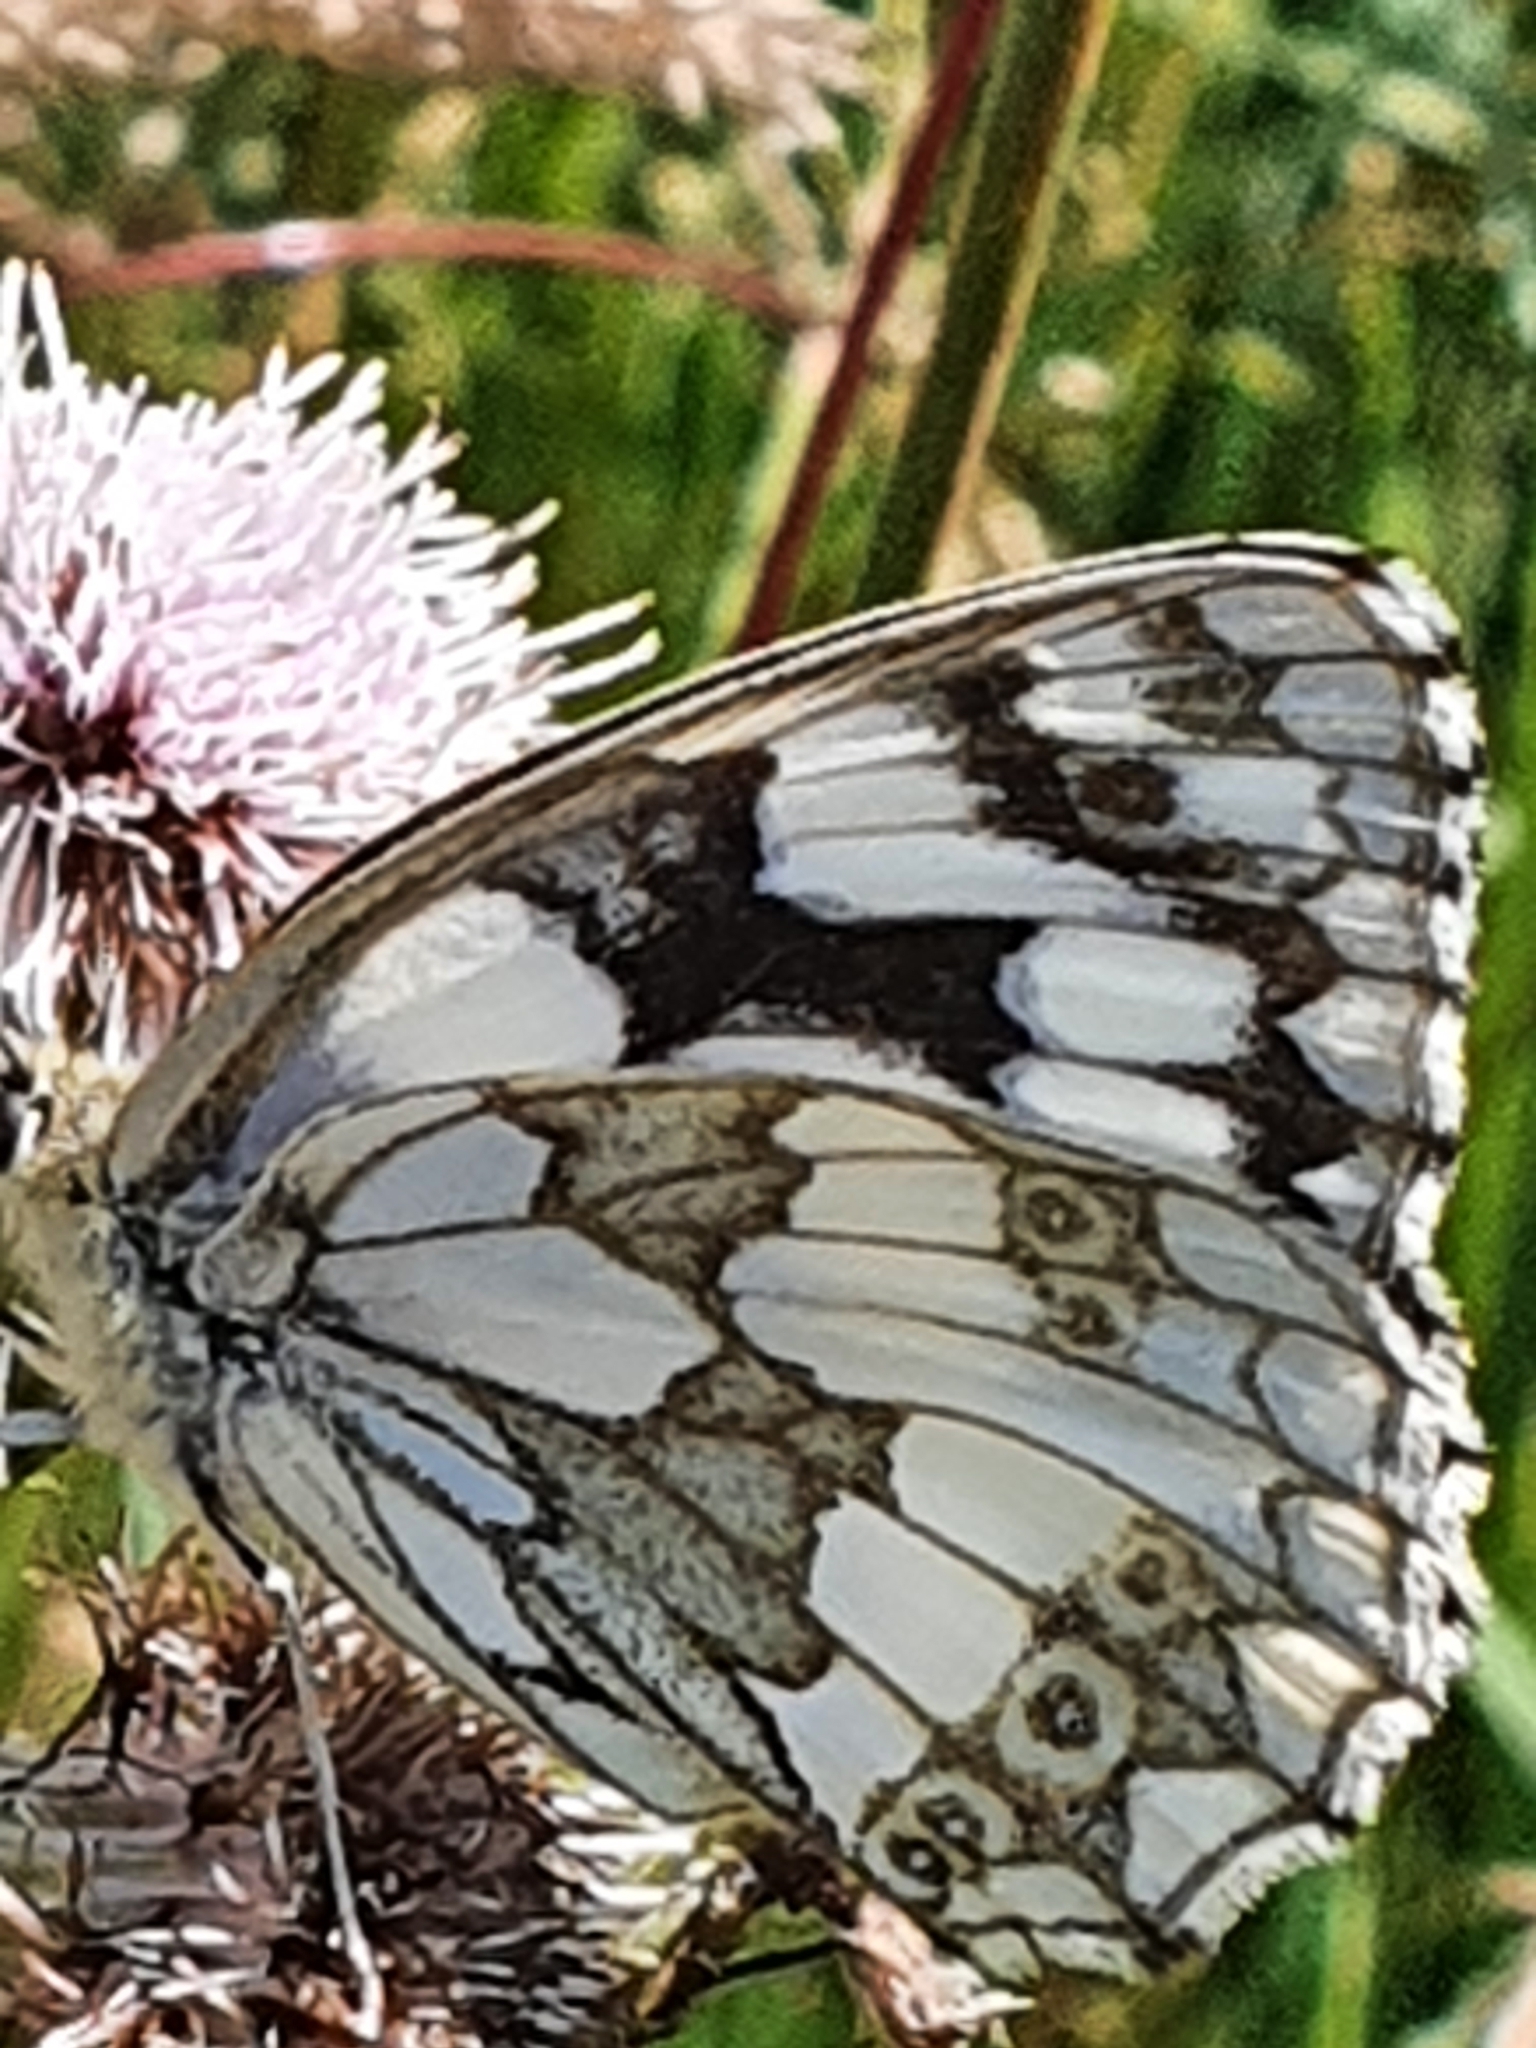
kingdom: Animalia
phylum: Arthropoda
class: Insecta
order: Lepidoptera
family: Nymphalidae
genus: Melanargia
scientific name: Melanargia galathea
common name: Marbled white
